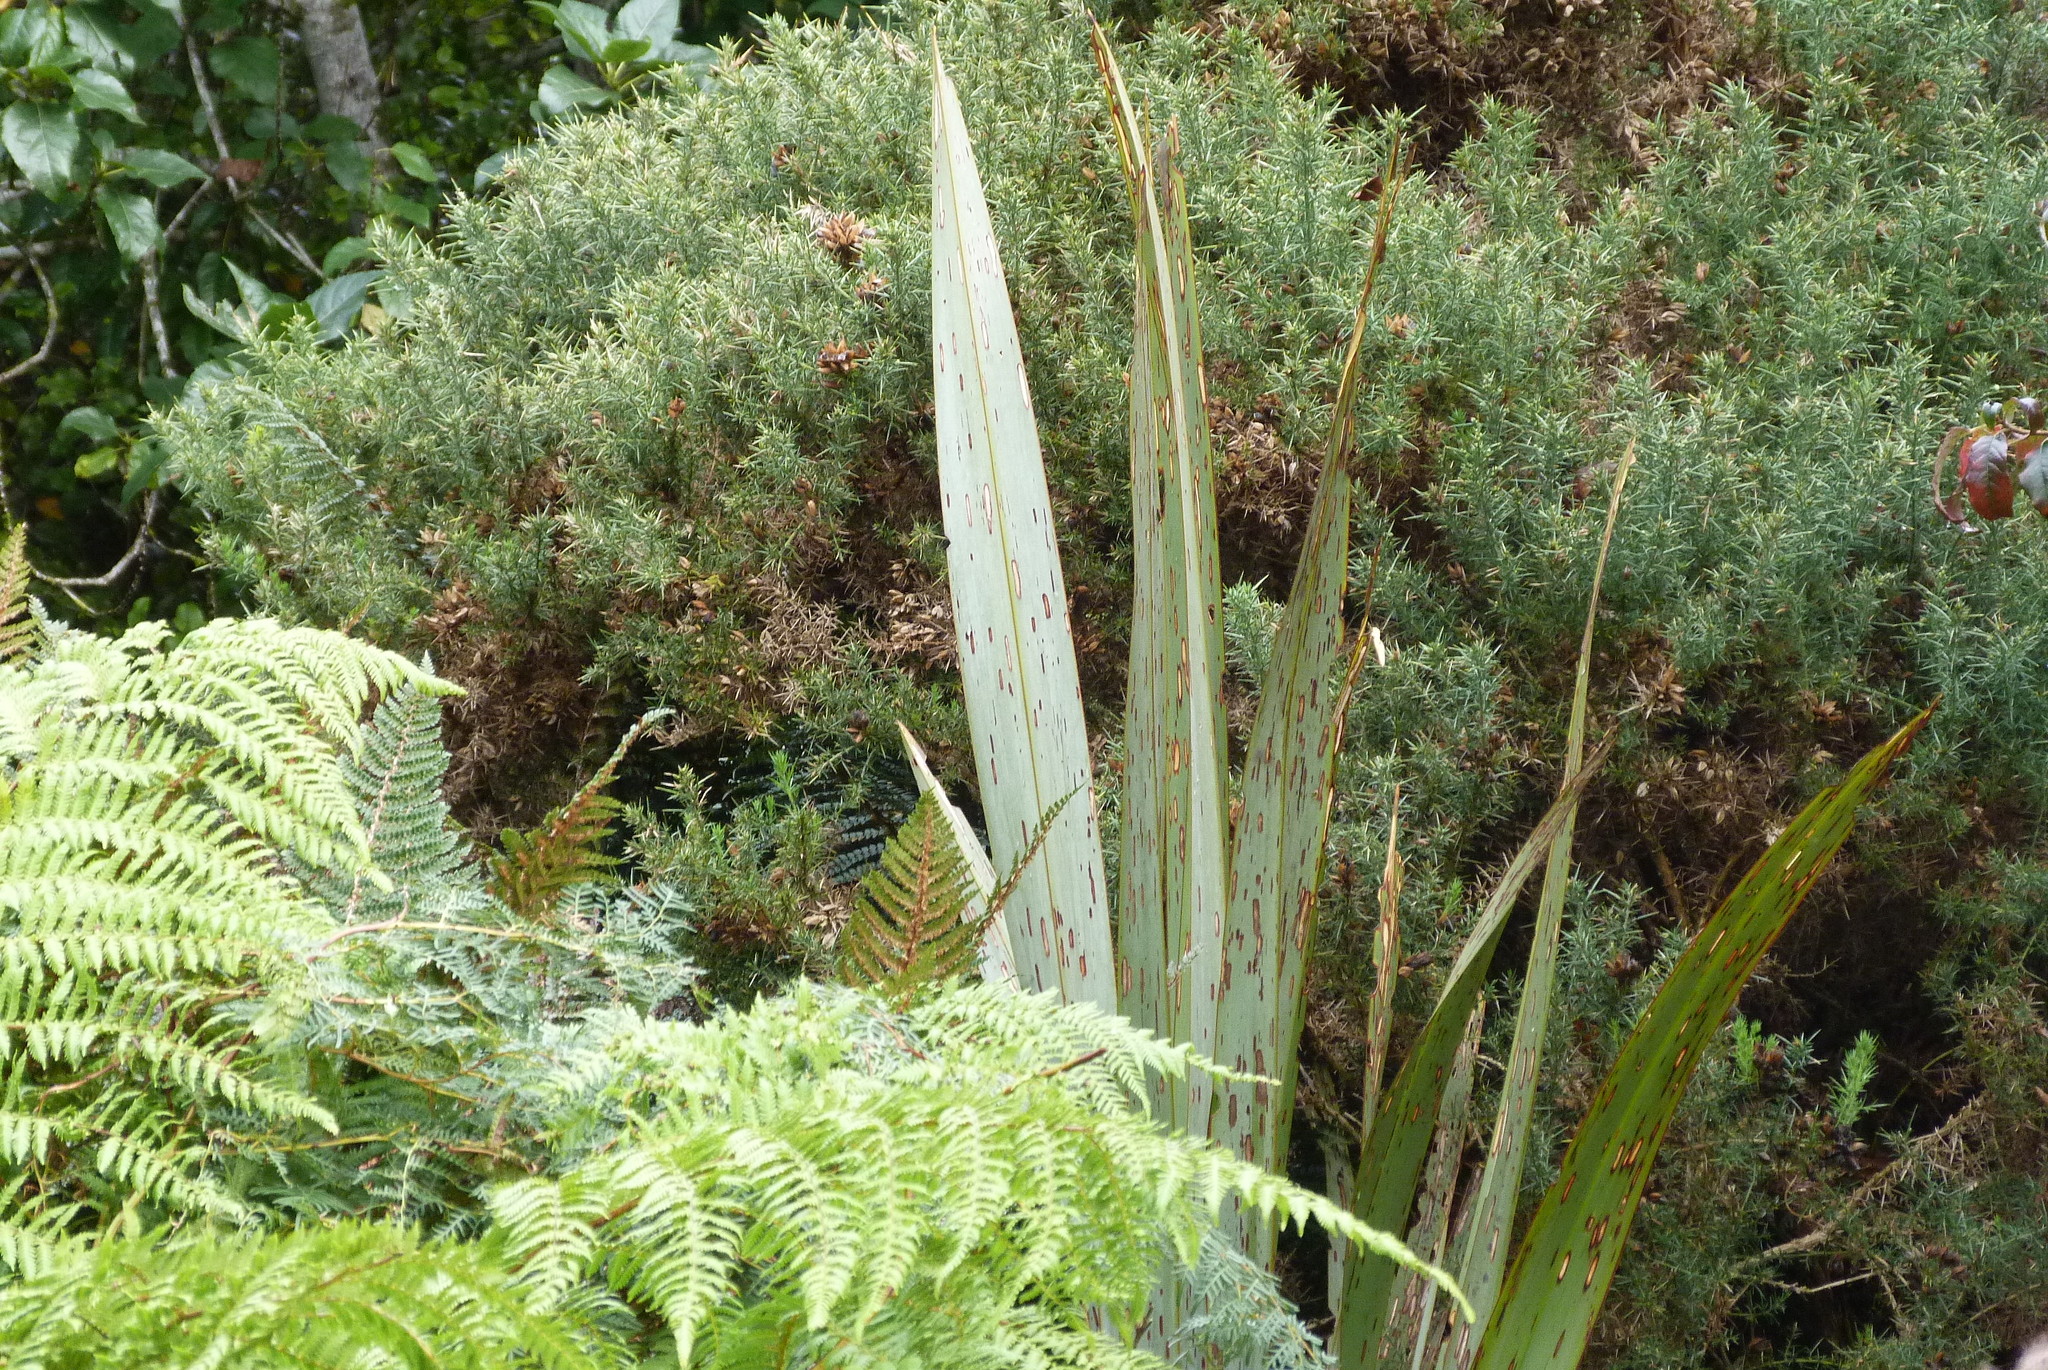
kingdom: Plantae
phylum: Tracheophyta
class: Liliopsida
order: Asparagales
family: Asphodelaceae
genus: Phormium
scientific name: Phormium tenax
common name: New zealand flax
